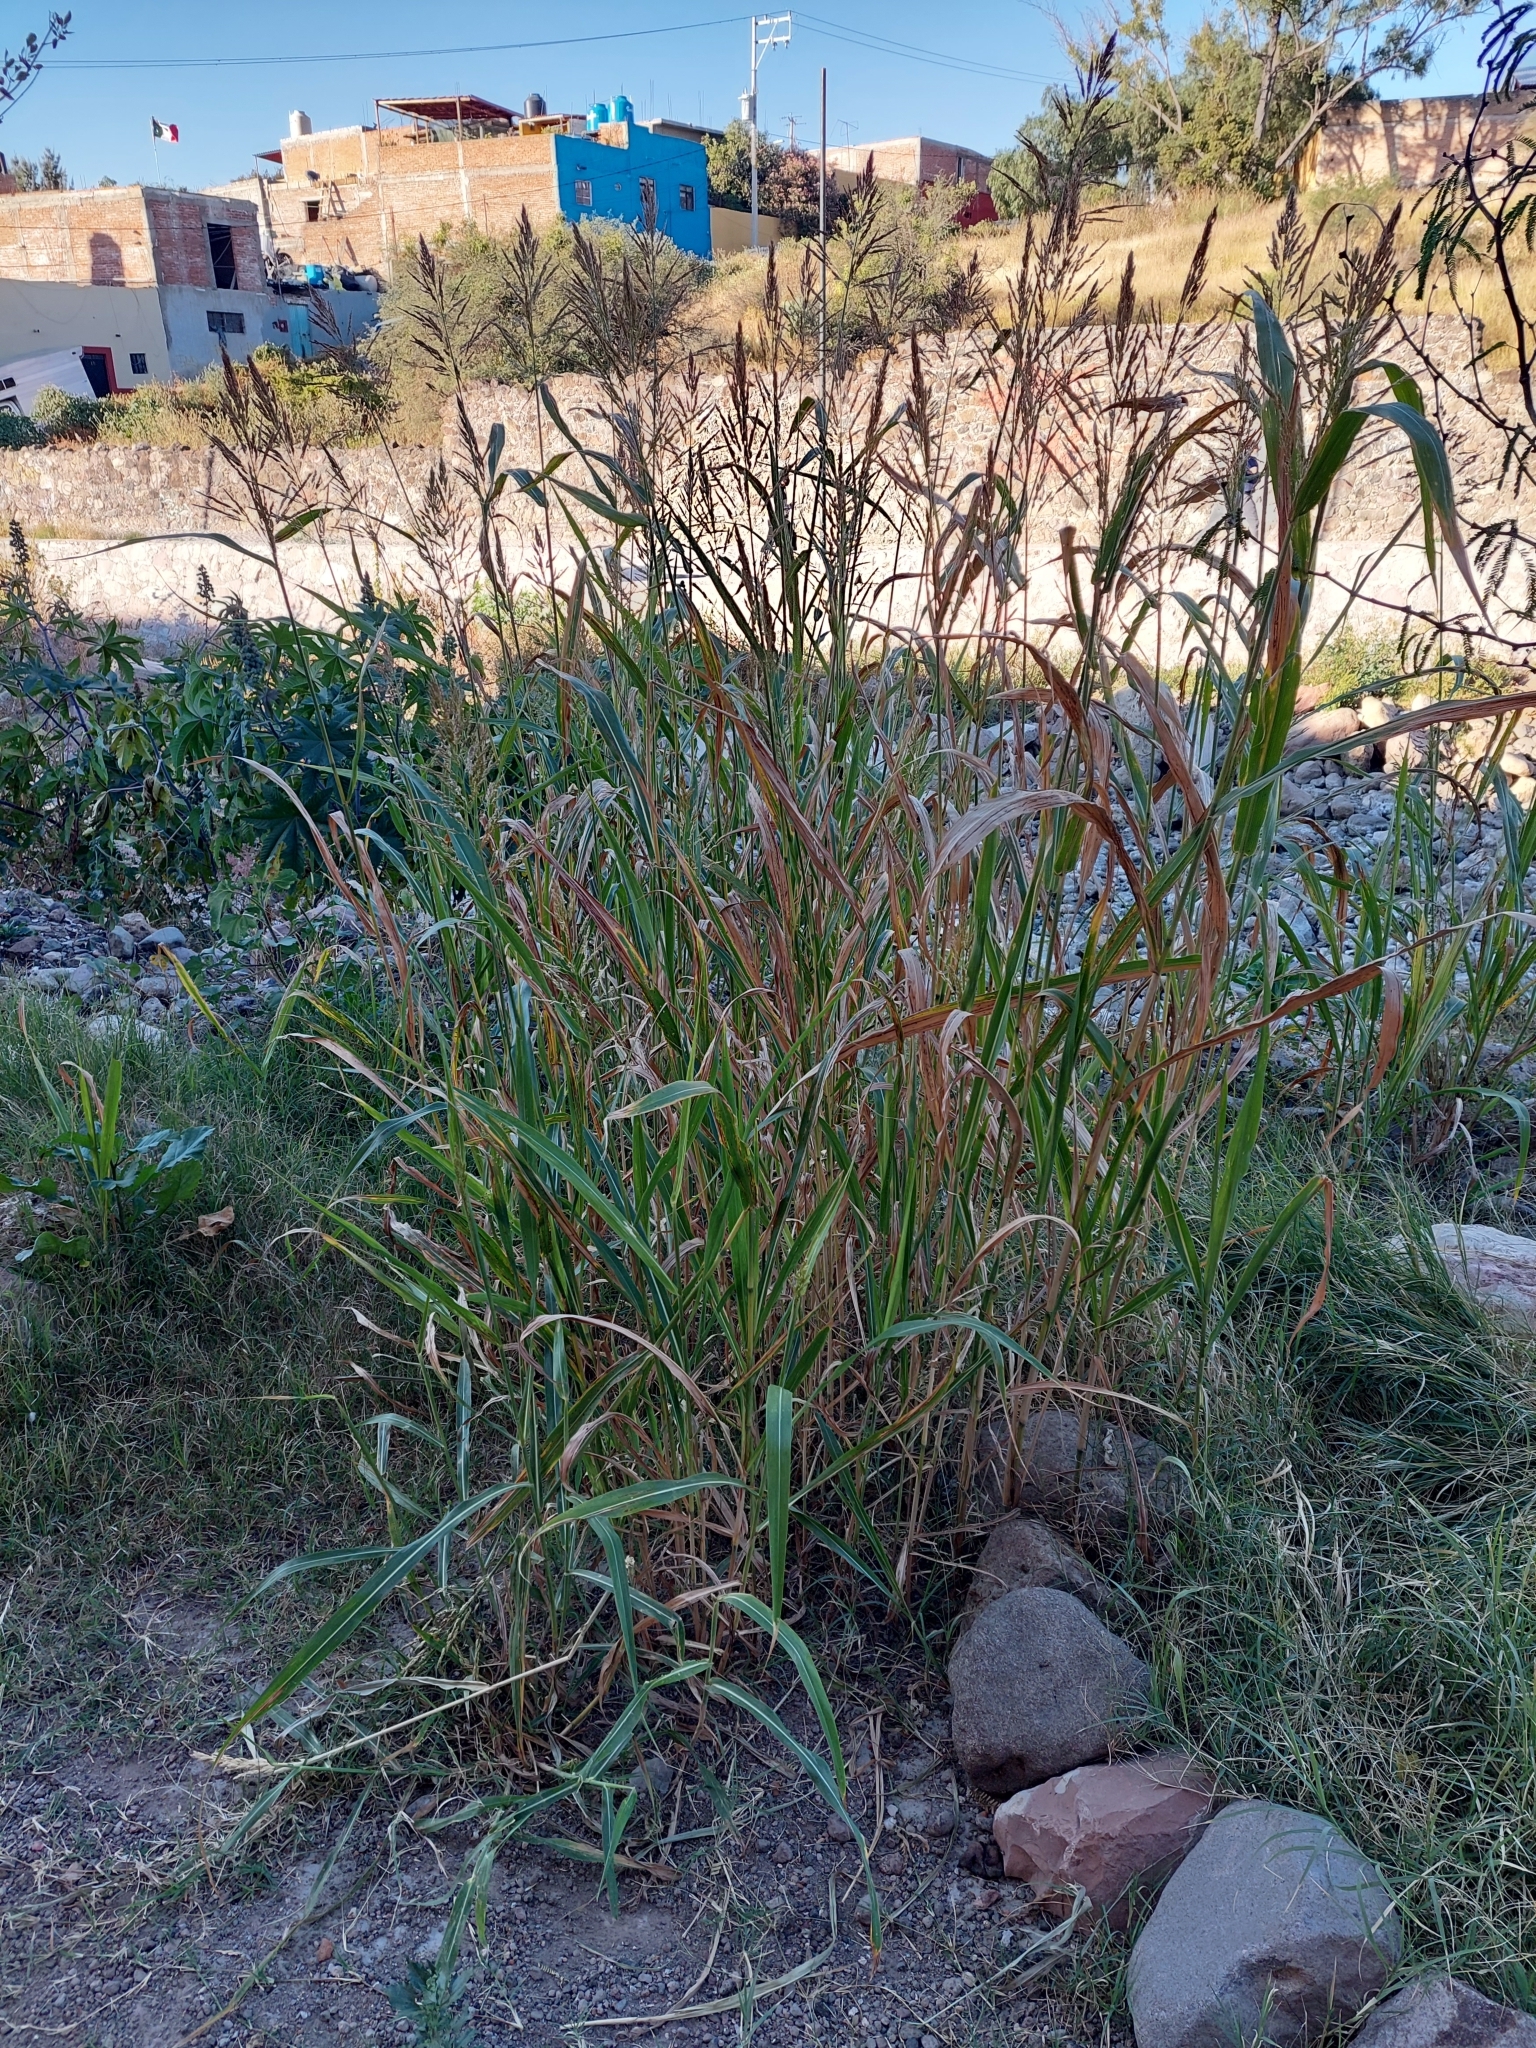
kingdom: Plantae
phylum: Tracheophyta
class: Liliopsida
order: Poales
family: Poaceae
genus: Sorghum
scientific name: Sorghum halepense
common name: Johnson-grass
